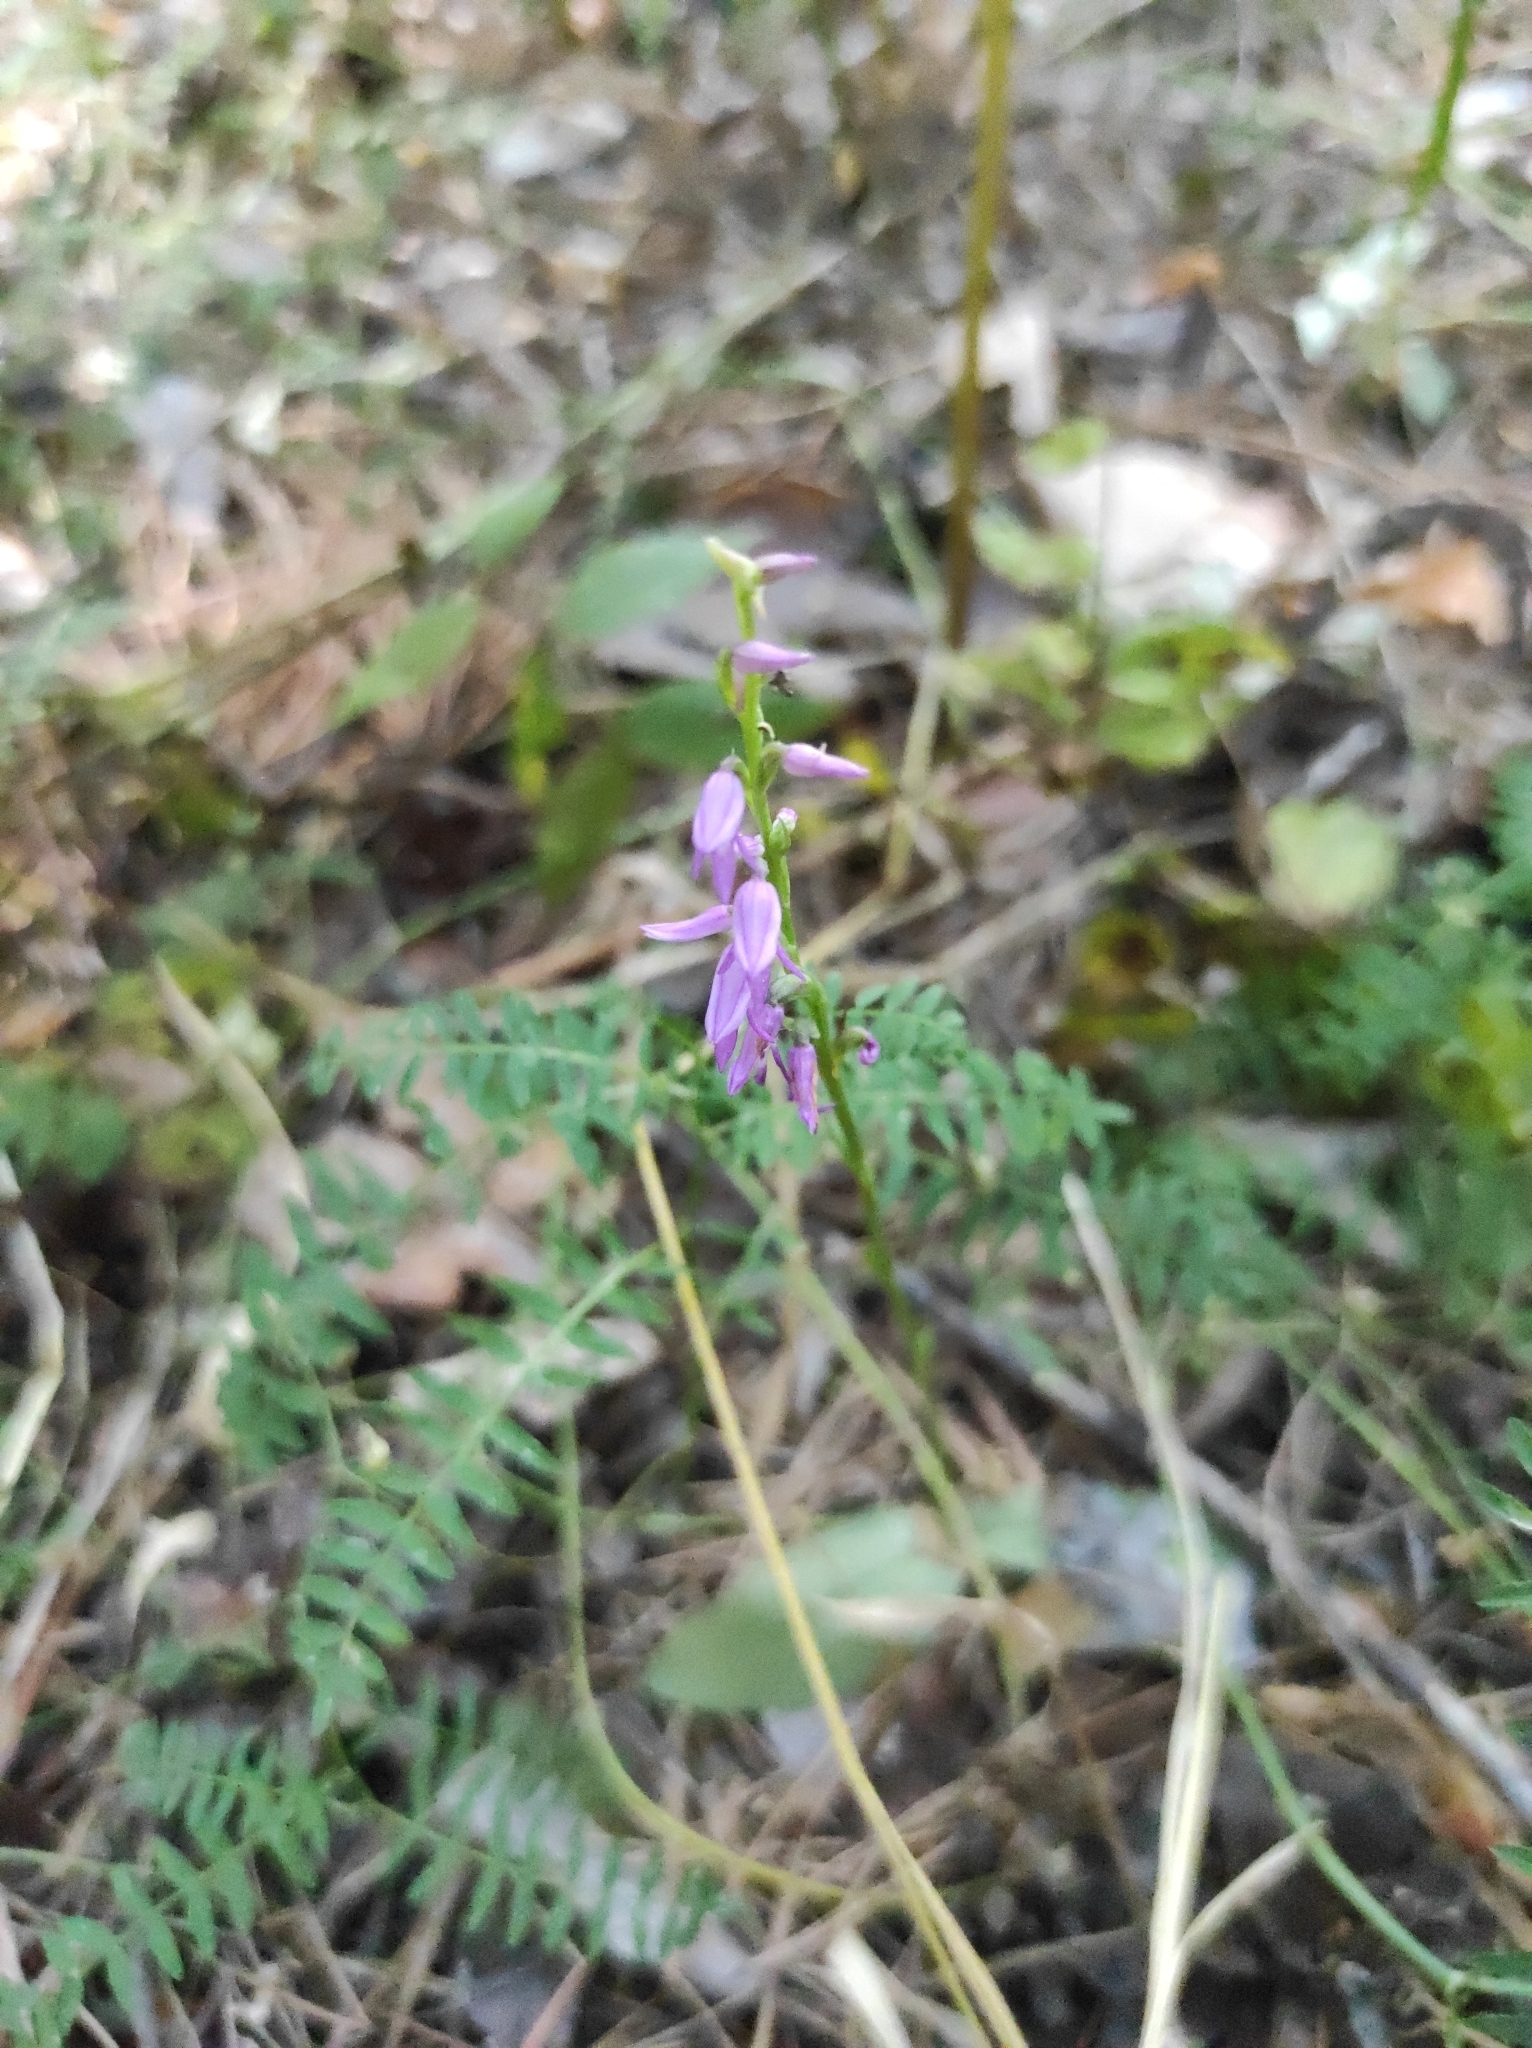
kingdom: Plantae
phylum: Tracheophyta
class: Liliopsida
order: Asparagales
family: Orchidaceae
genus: Hemipilia
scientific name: Hemipilia cucullata
